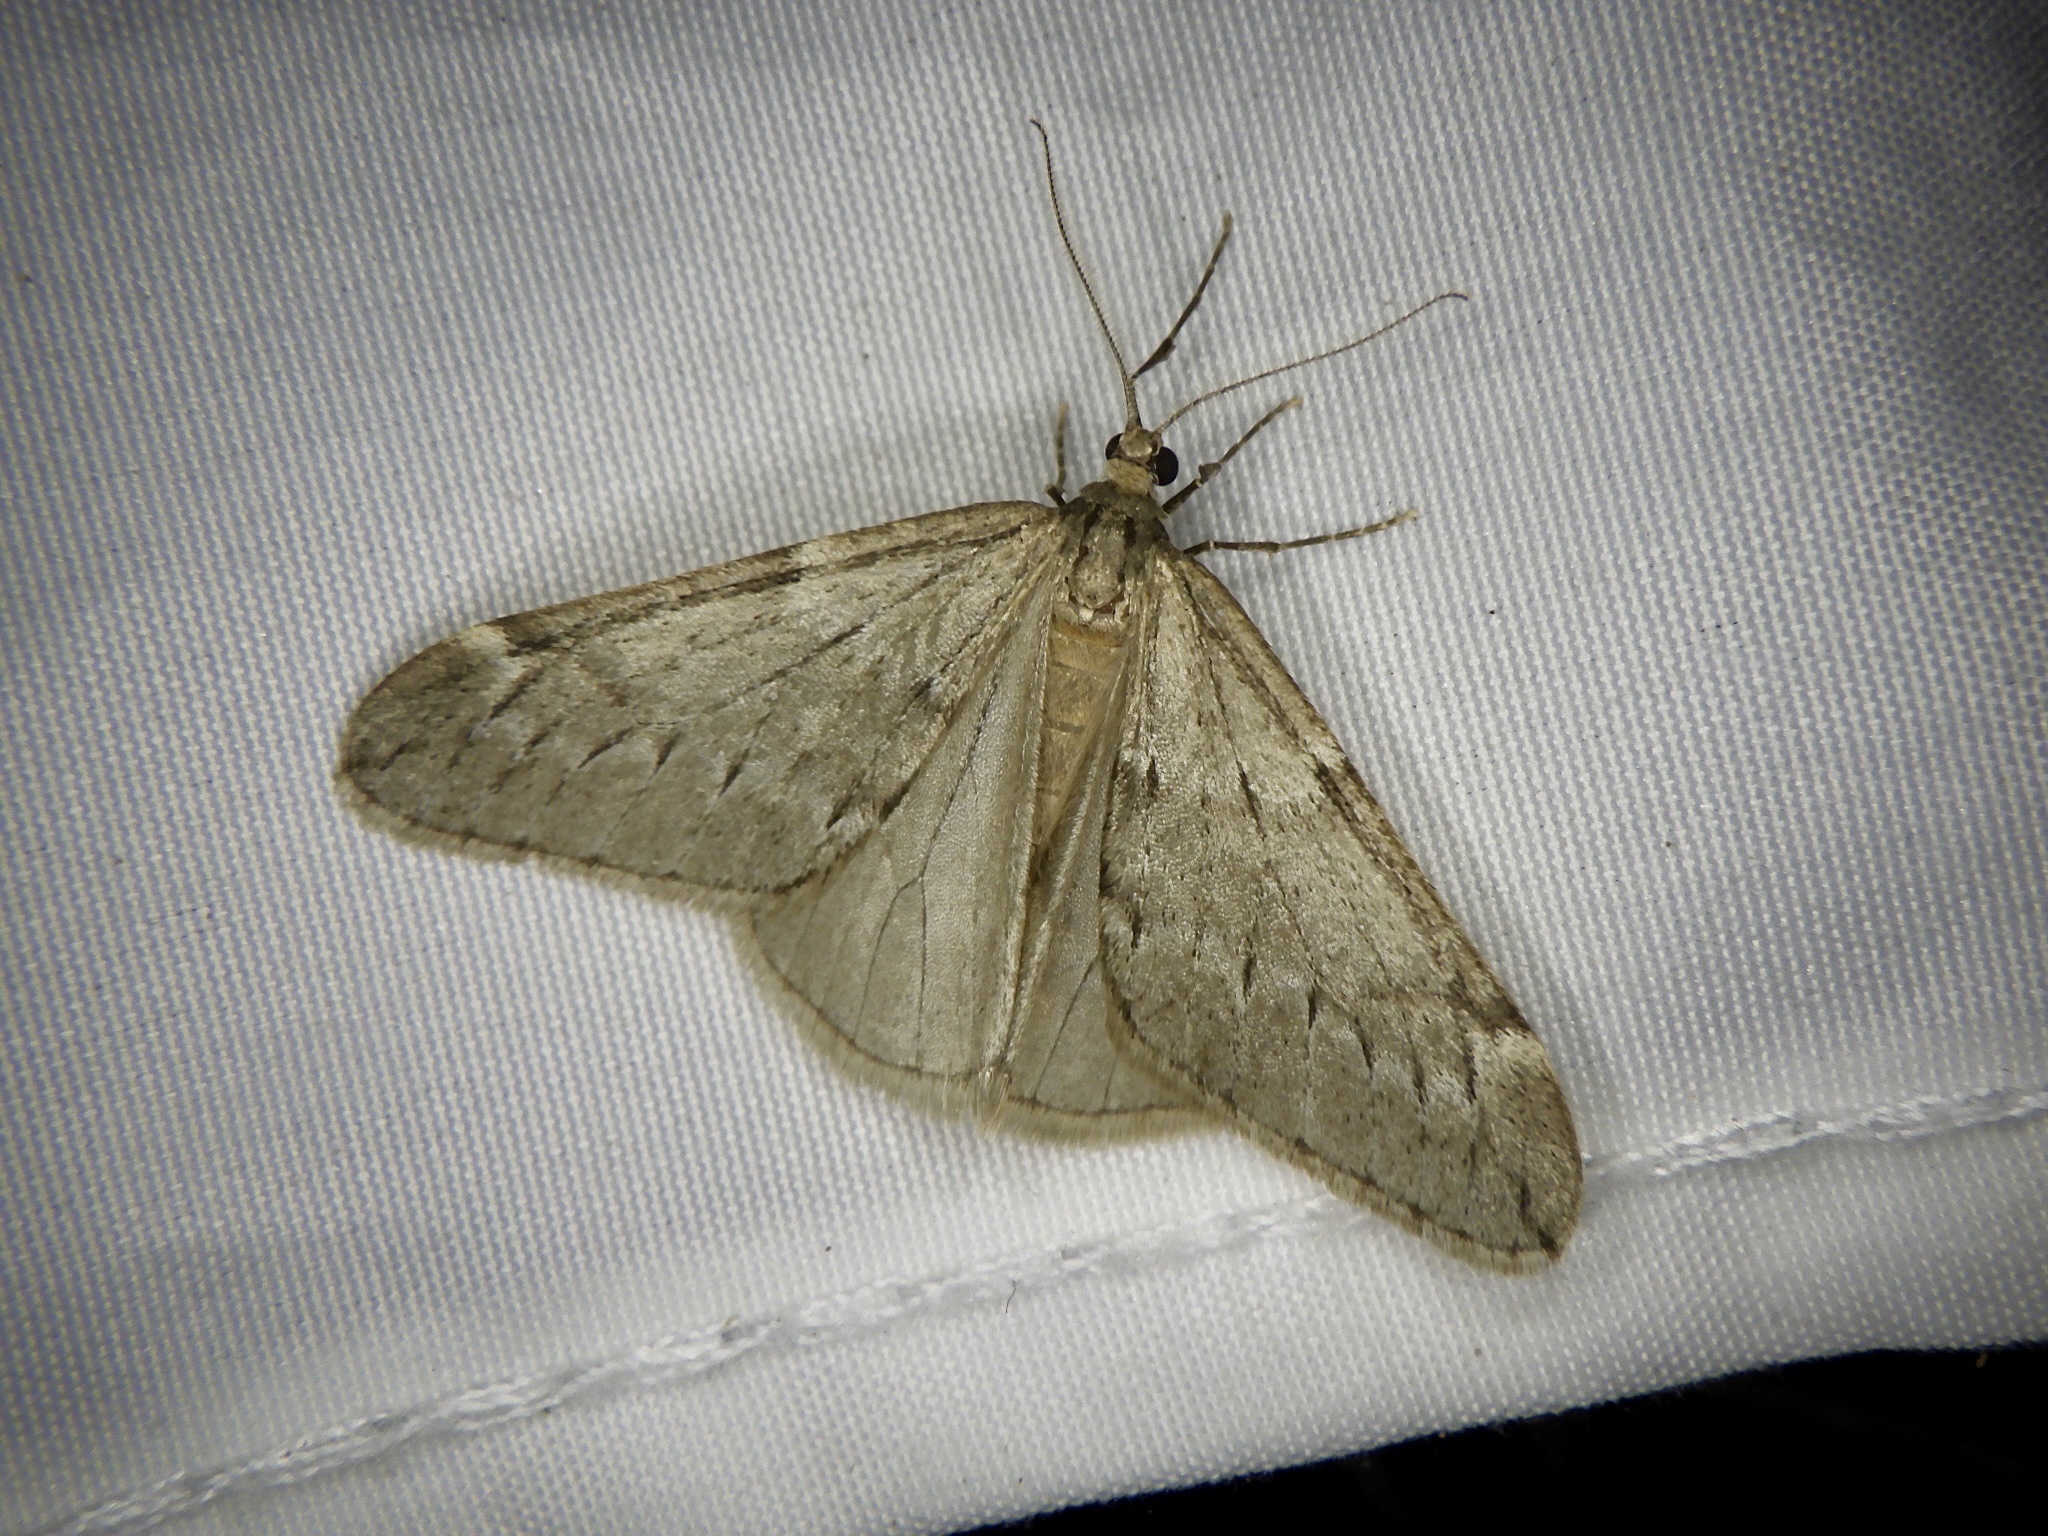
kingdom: Animalia
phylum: Arthropoda
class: Insecta
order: Lepidoptera
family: Geometridae
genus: Alsophila
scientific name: Alsophila japonensis
